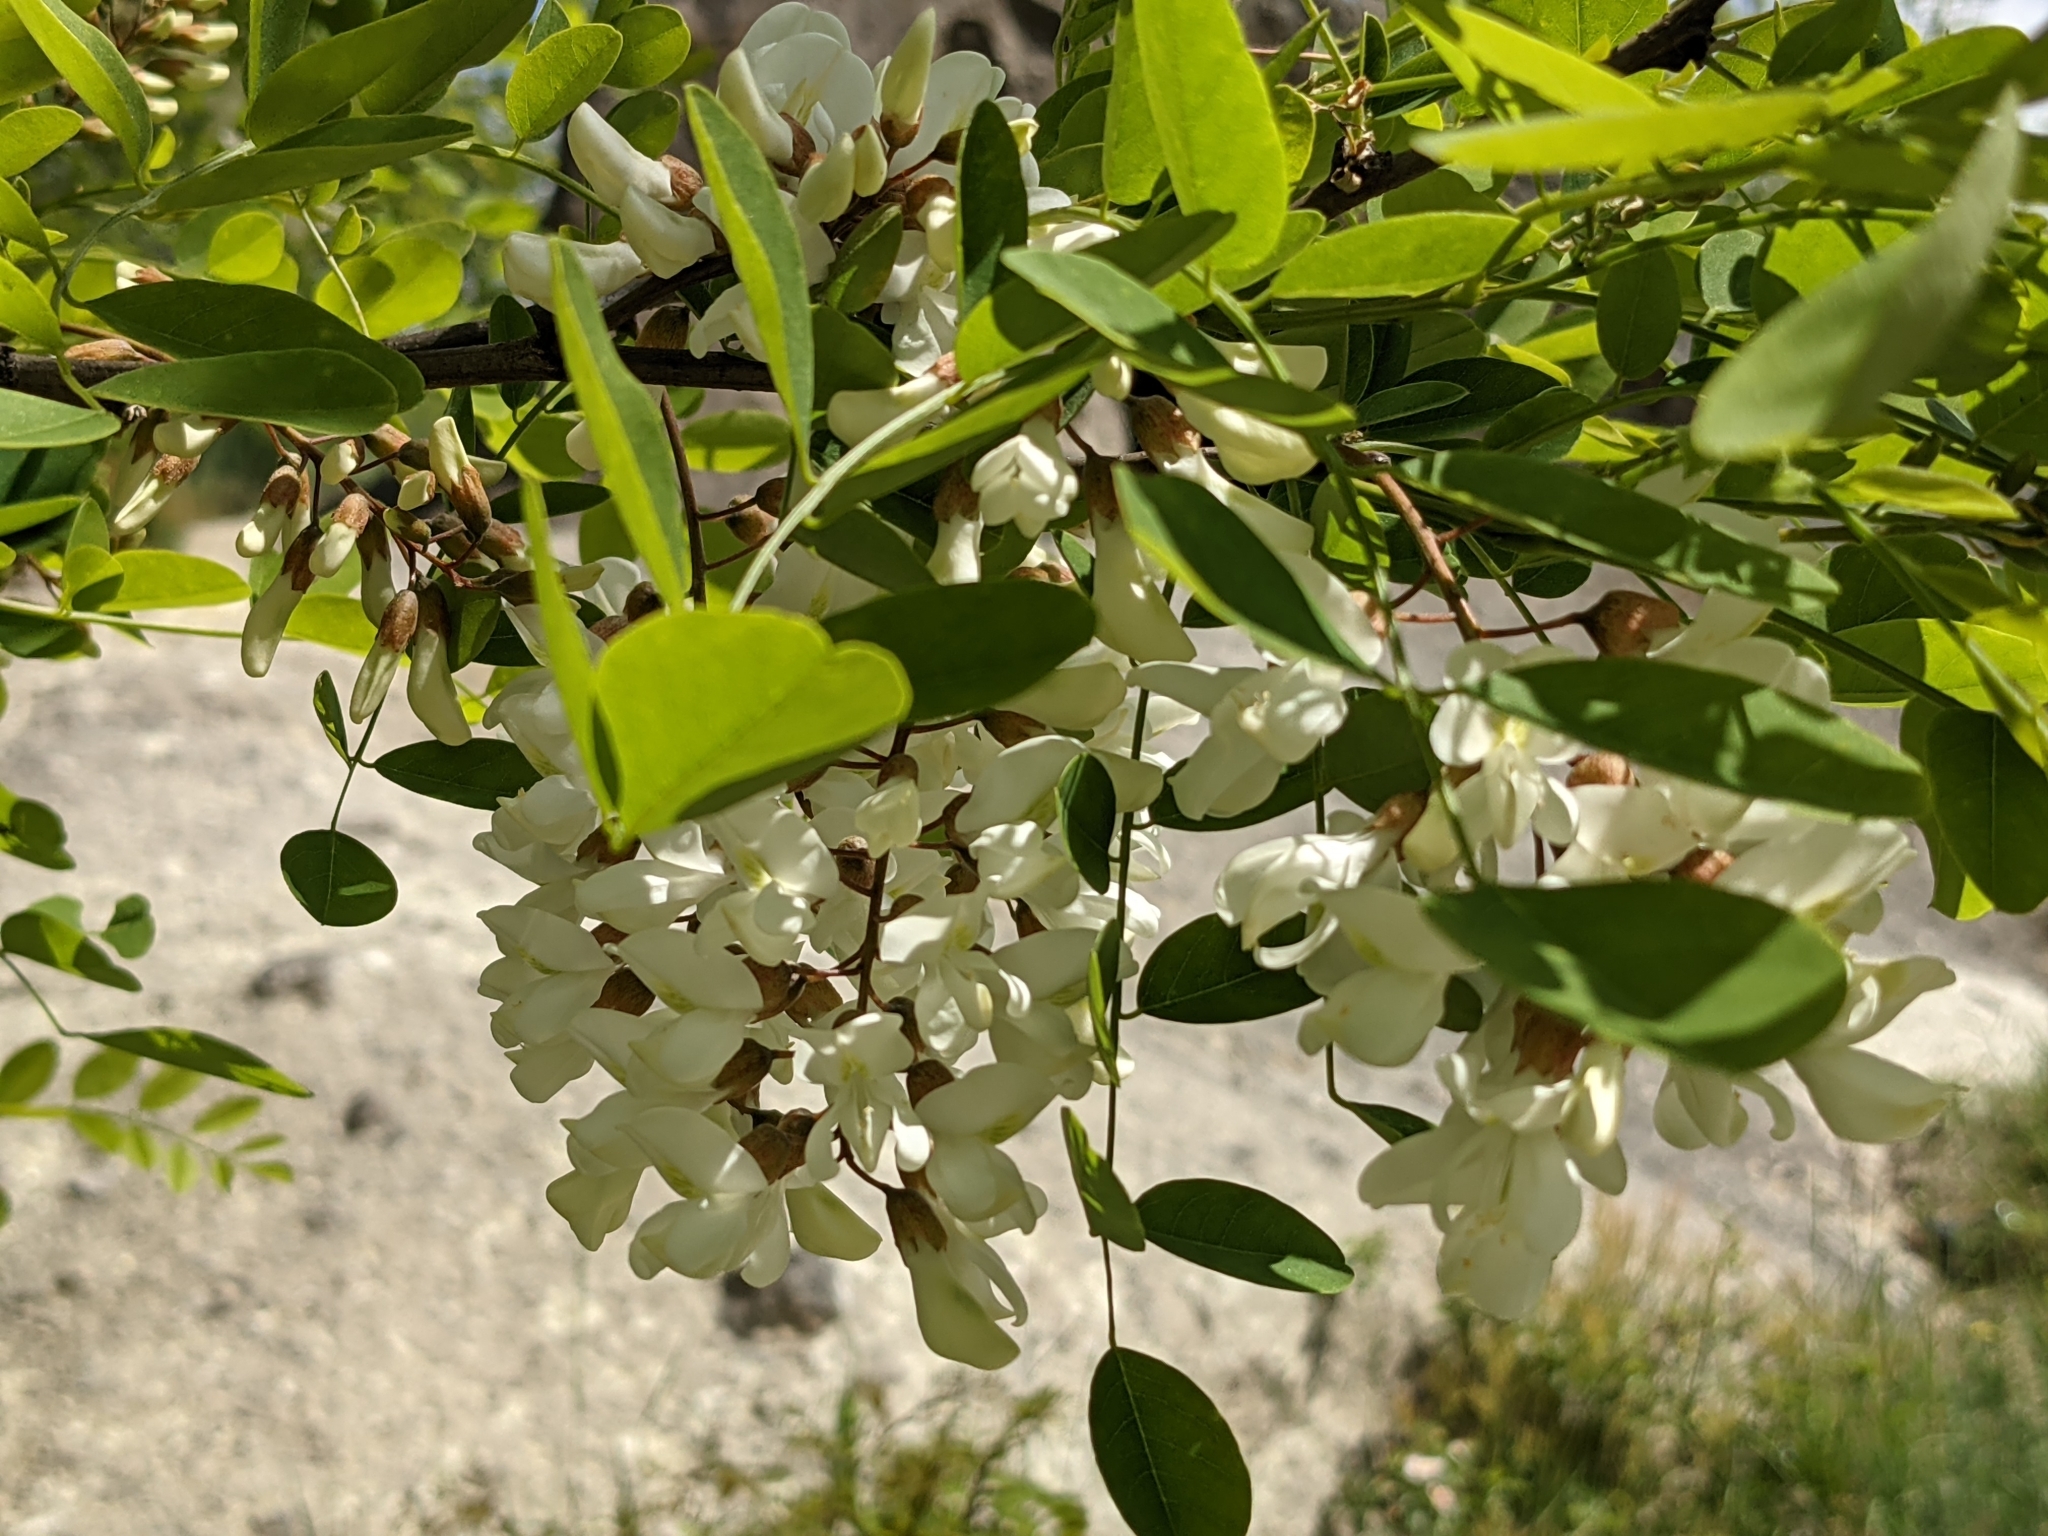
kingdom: Plantae
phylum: Tracheophyta
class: Magnoliopsida
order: Fabales
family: Fabaceae
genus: Robinia
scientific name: Robinia pseudoacacia
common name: Black locust
